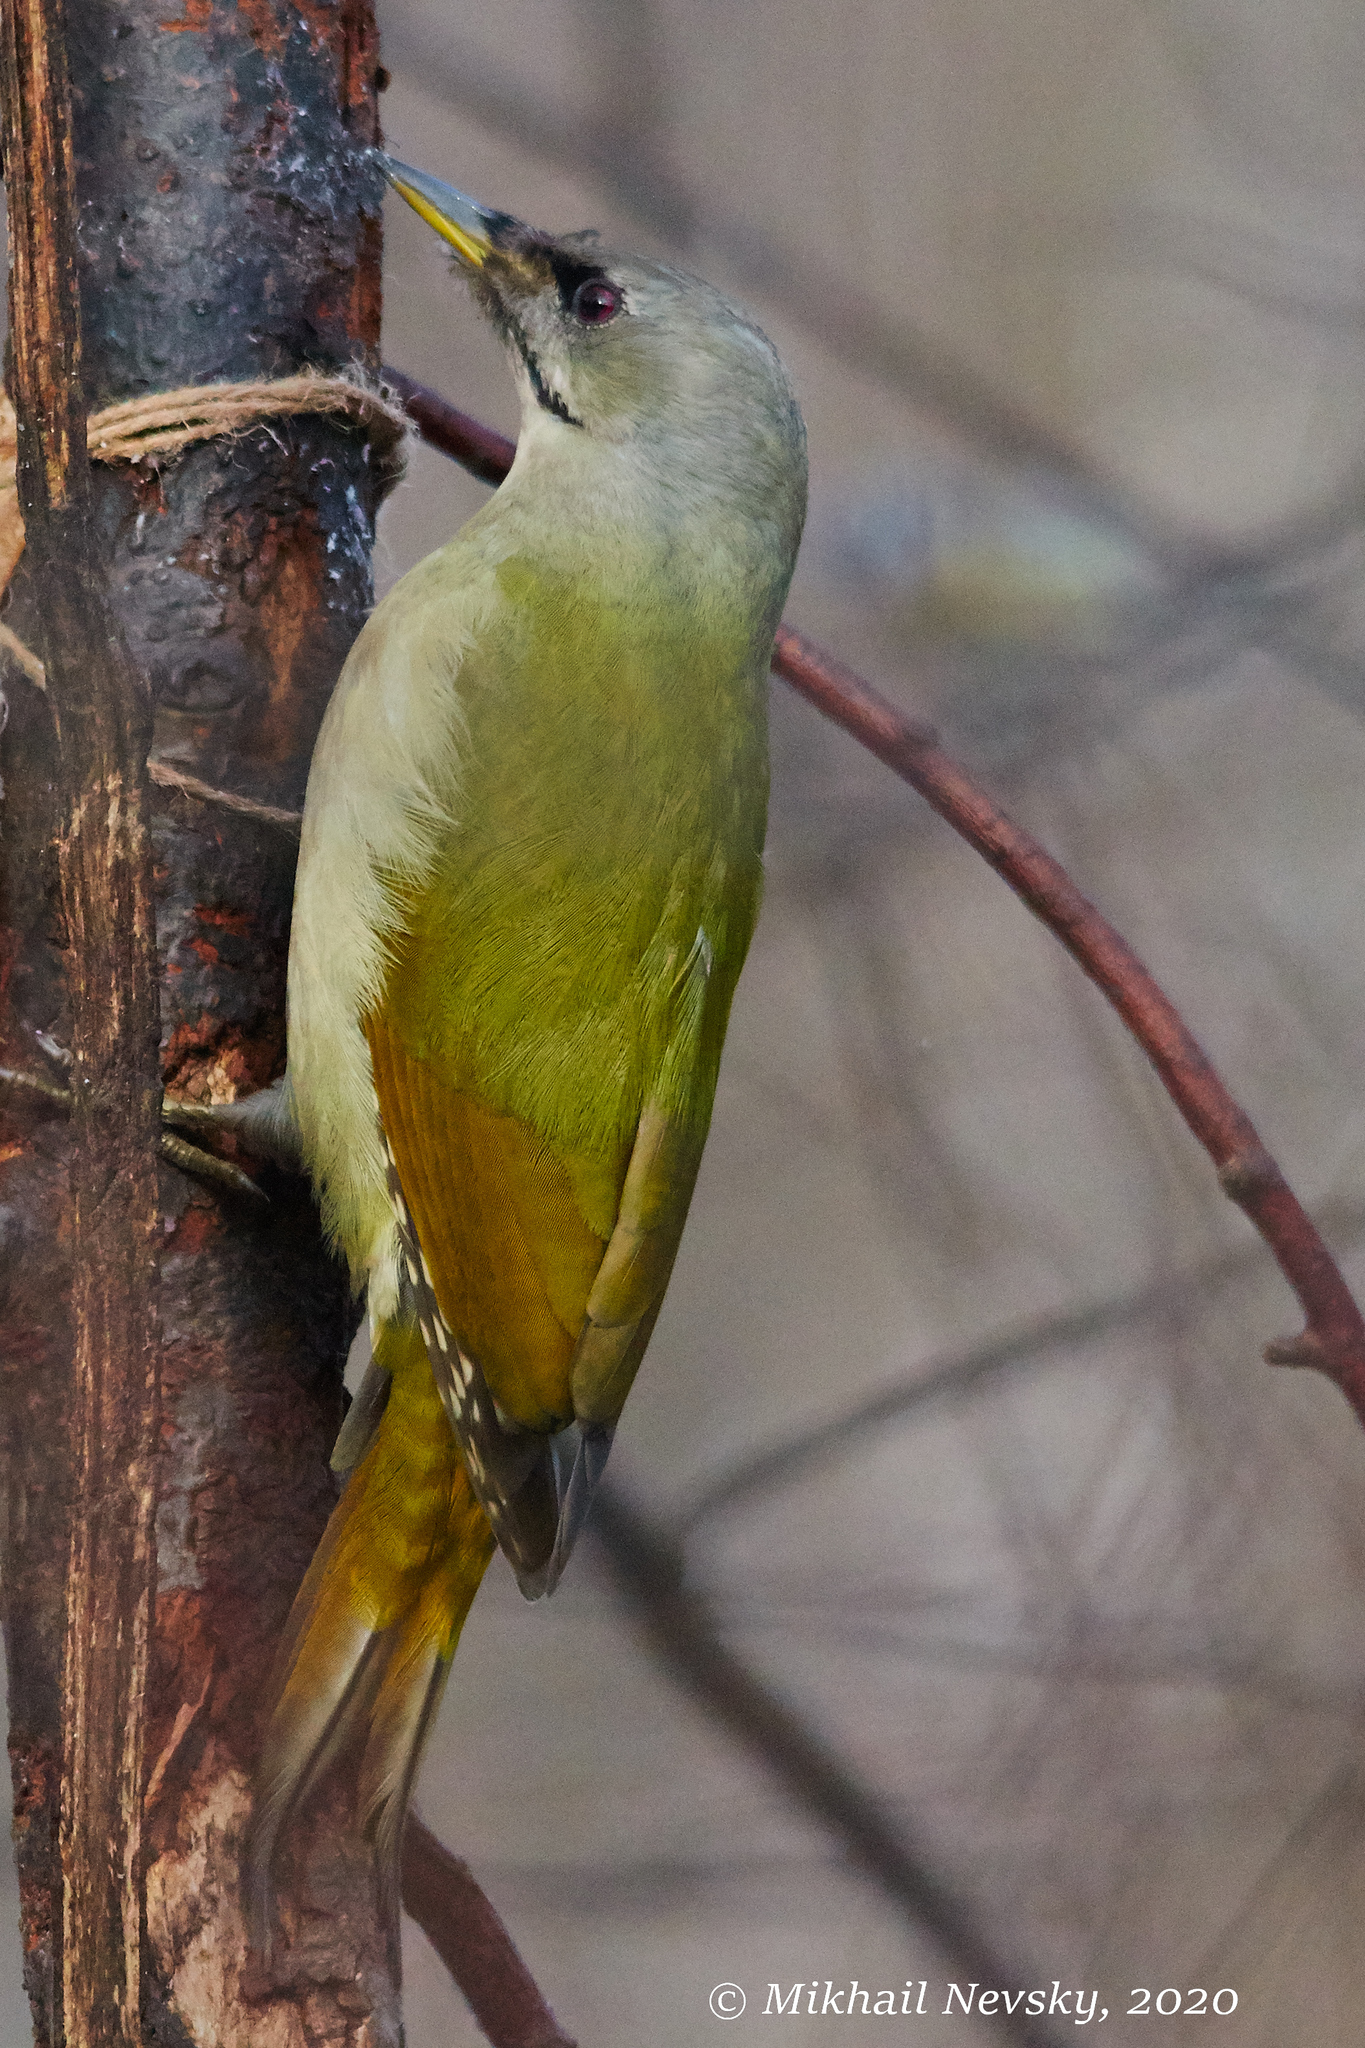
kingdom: Animalia
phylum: Chordata
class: Aves
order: Piciformes
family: Picidae
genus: Picus
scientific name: Picus canus
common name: Grey-headed woodpecker
